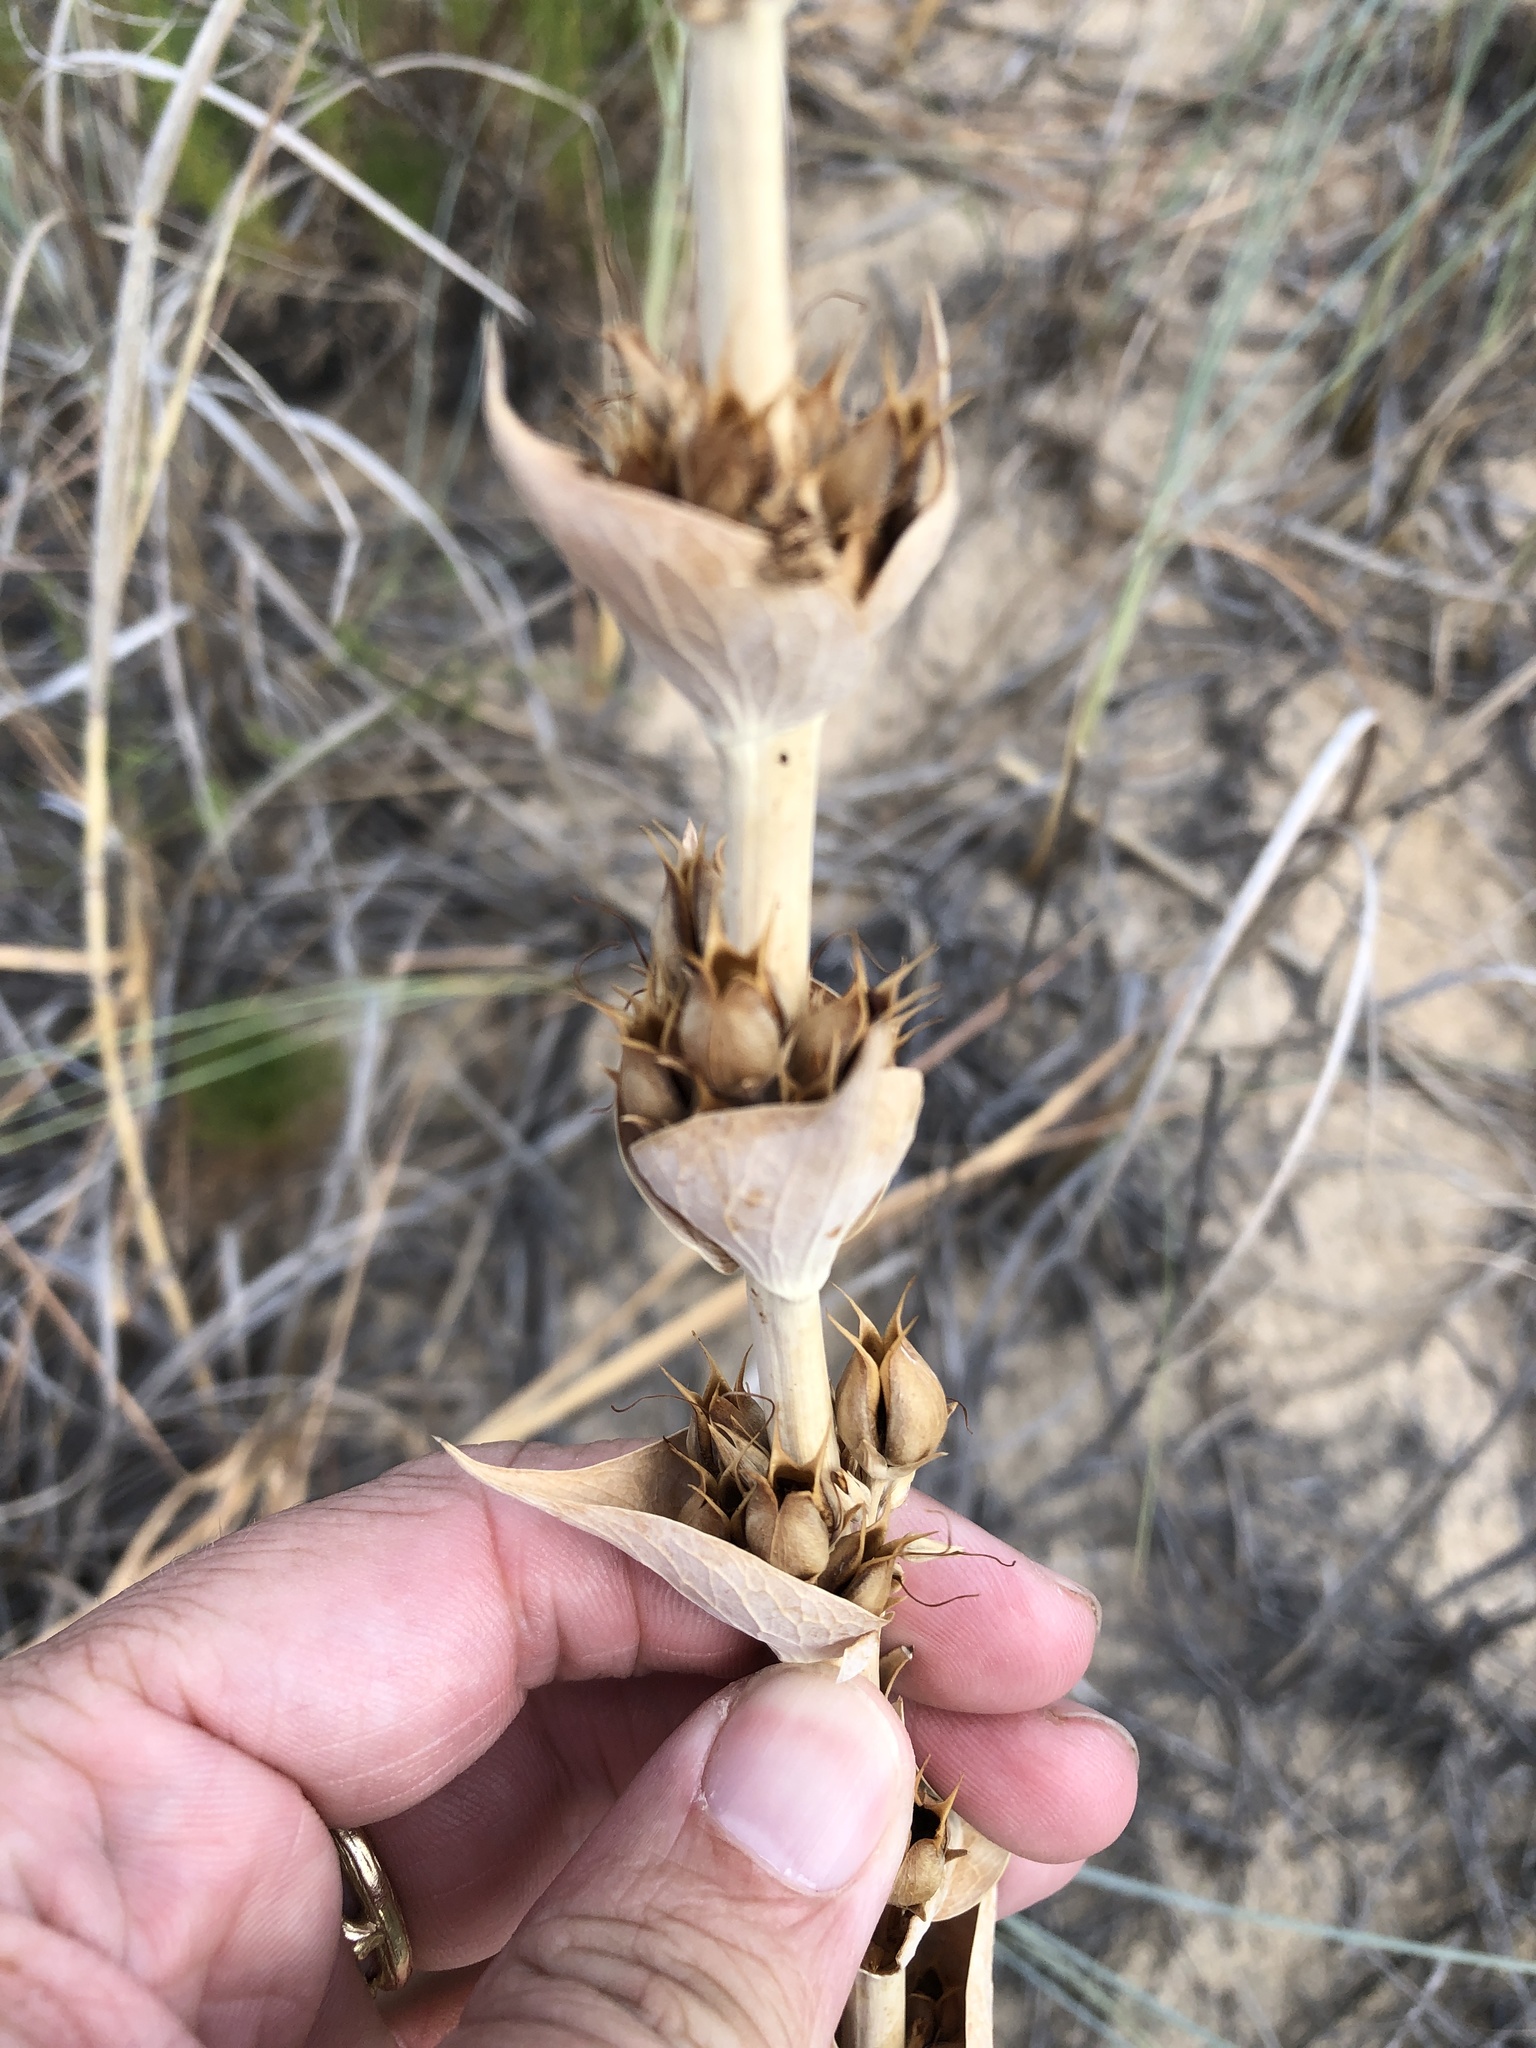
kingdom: Plantae
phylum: Tracheophyta
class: Magnoliopsida
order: Lamiales
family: Plantaginaceae
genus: Penstemon
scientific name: Penstemon buckleyi
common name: Buckley's penstemon
